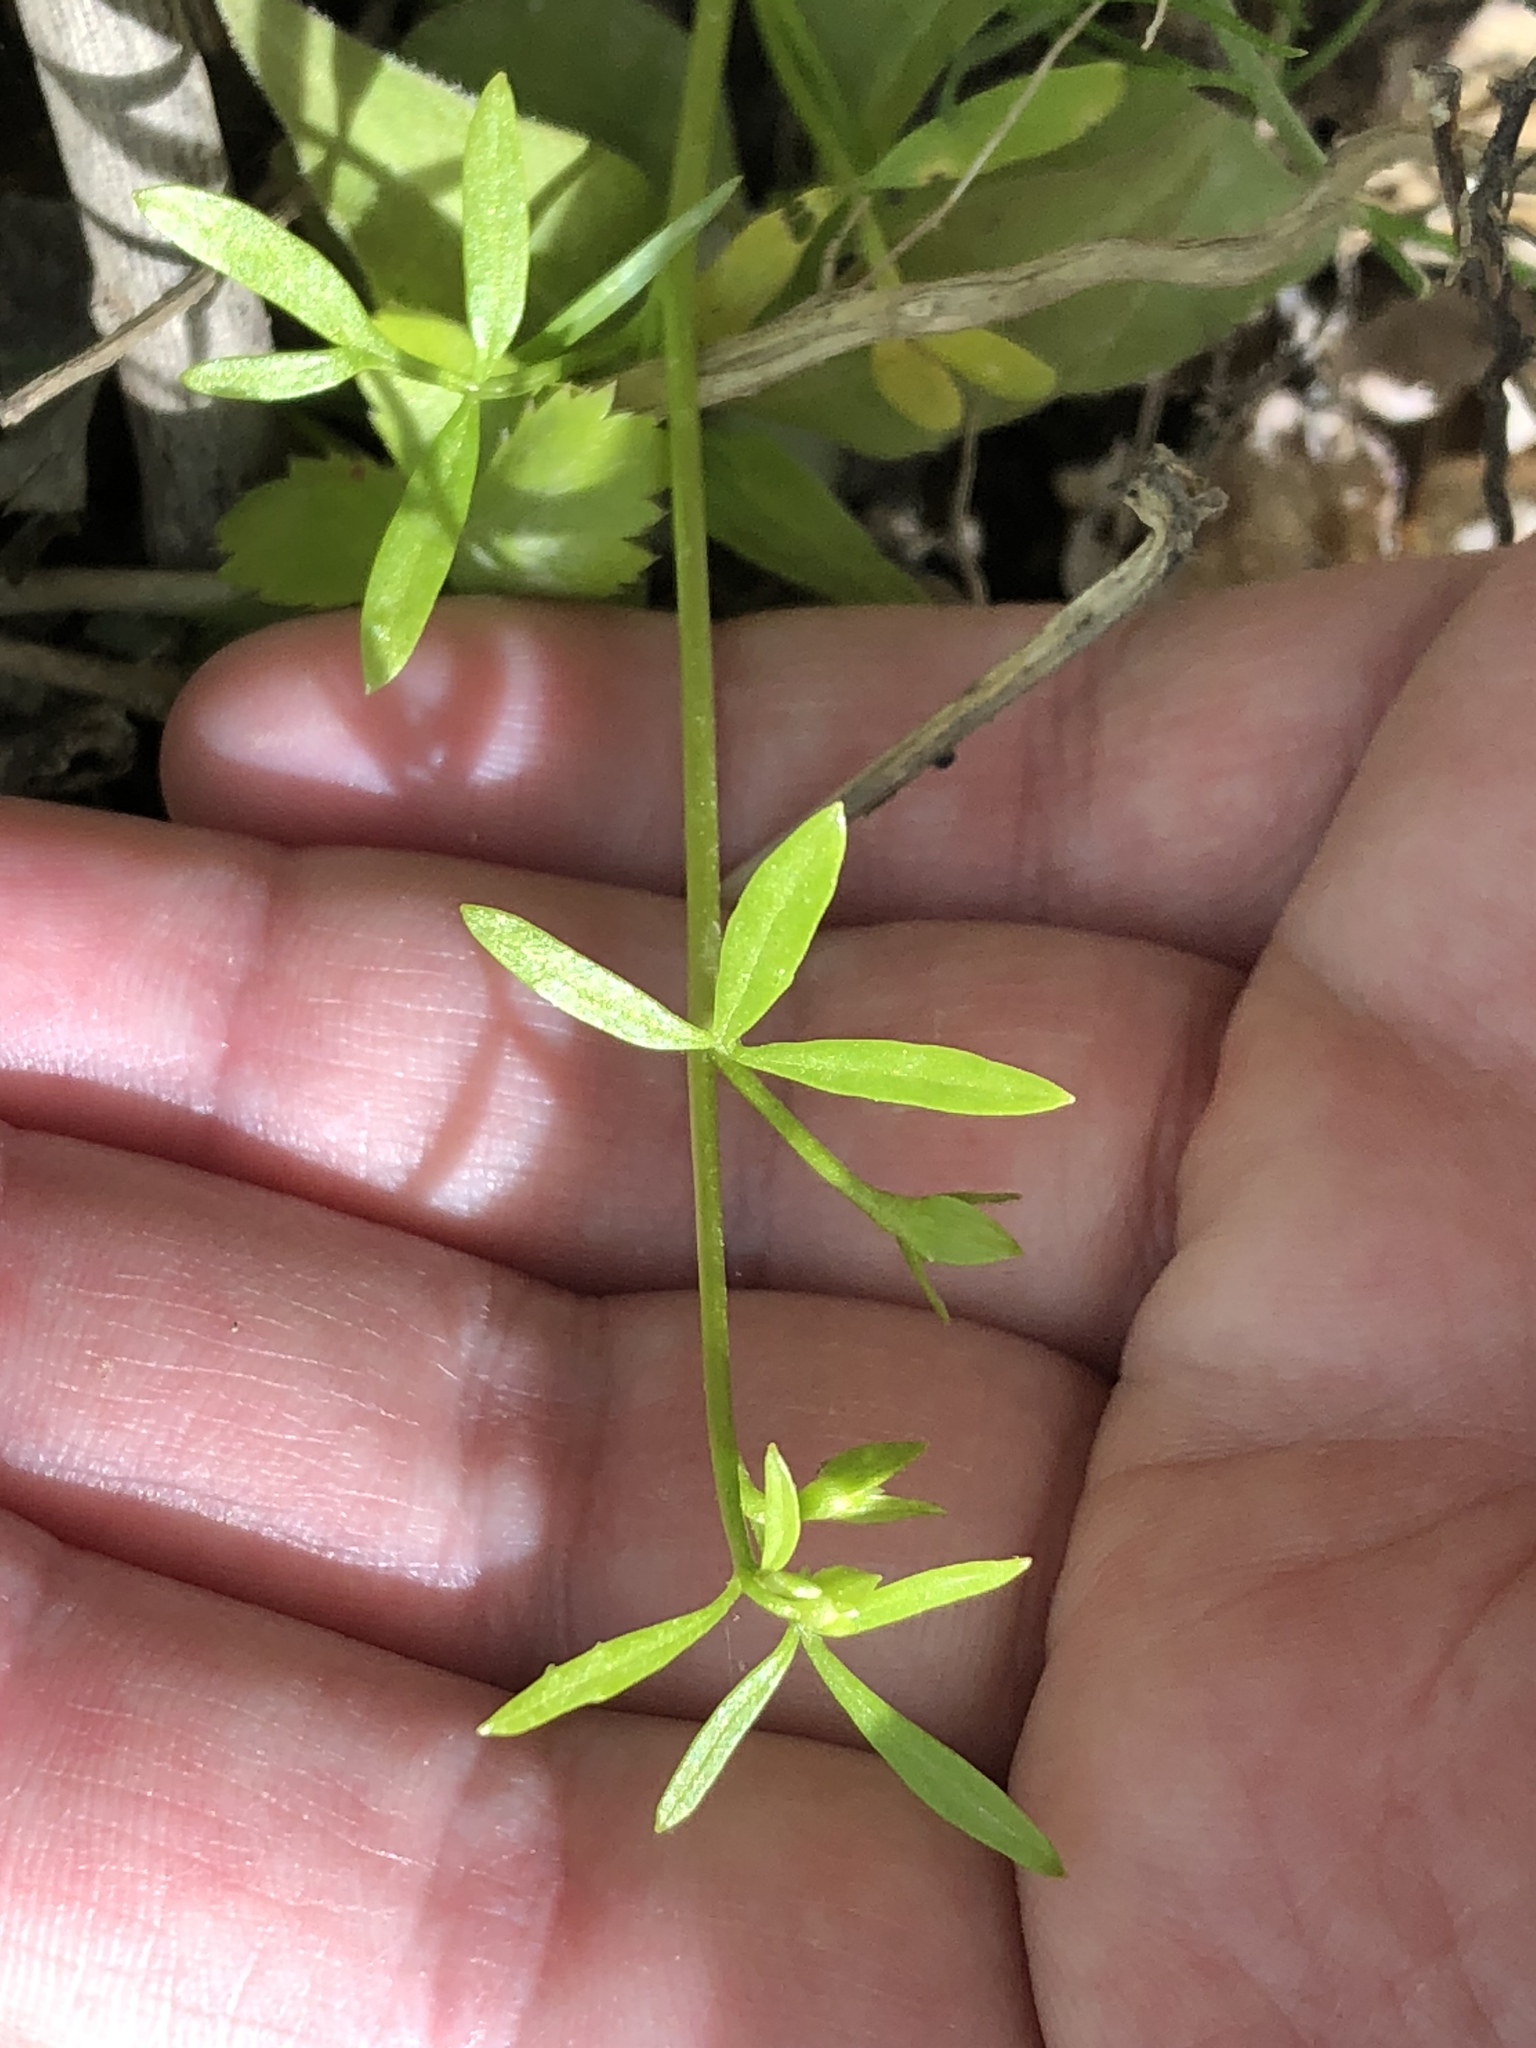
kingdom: Plantae
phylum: Tracheophyta
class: Magnoliopsida
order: Brassicales
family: Limnanthaceae
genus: Floerkea
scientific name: Floerkea proserpinacoides
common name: False mermaid
